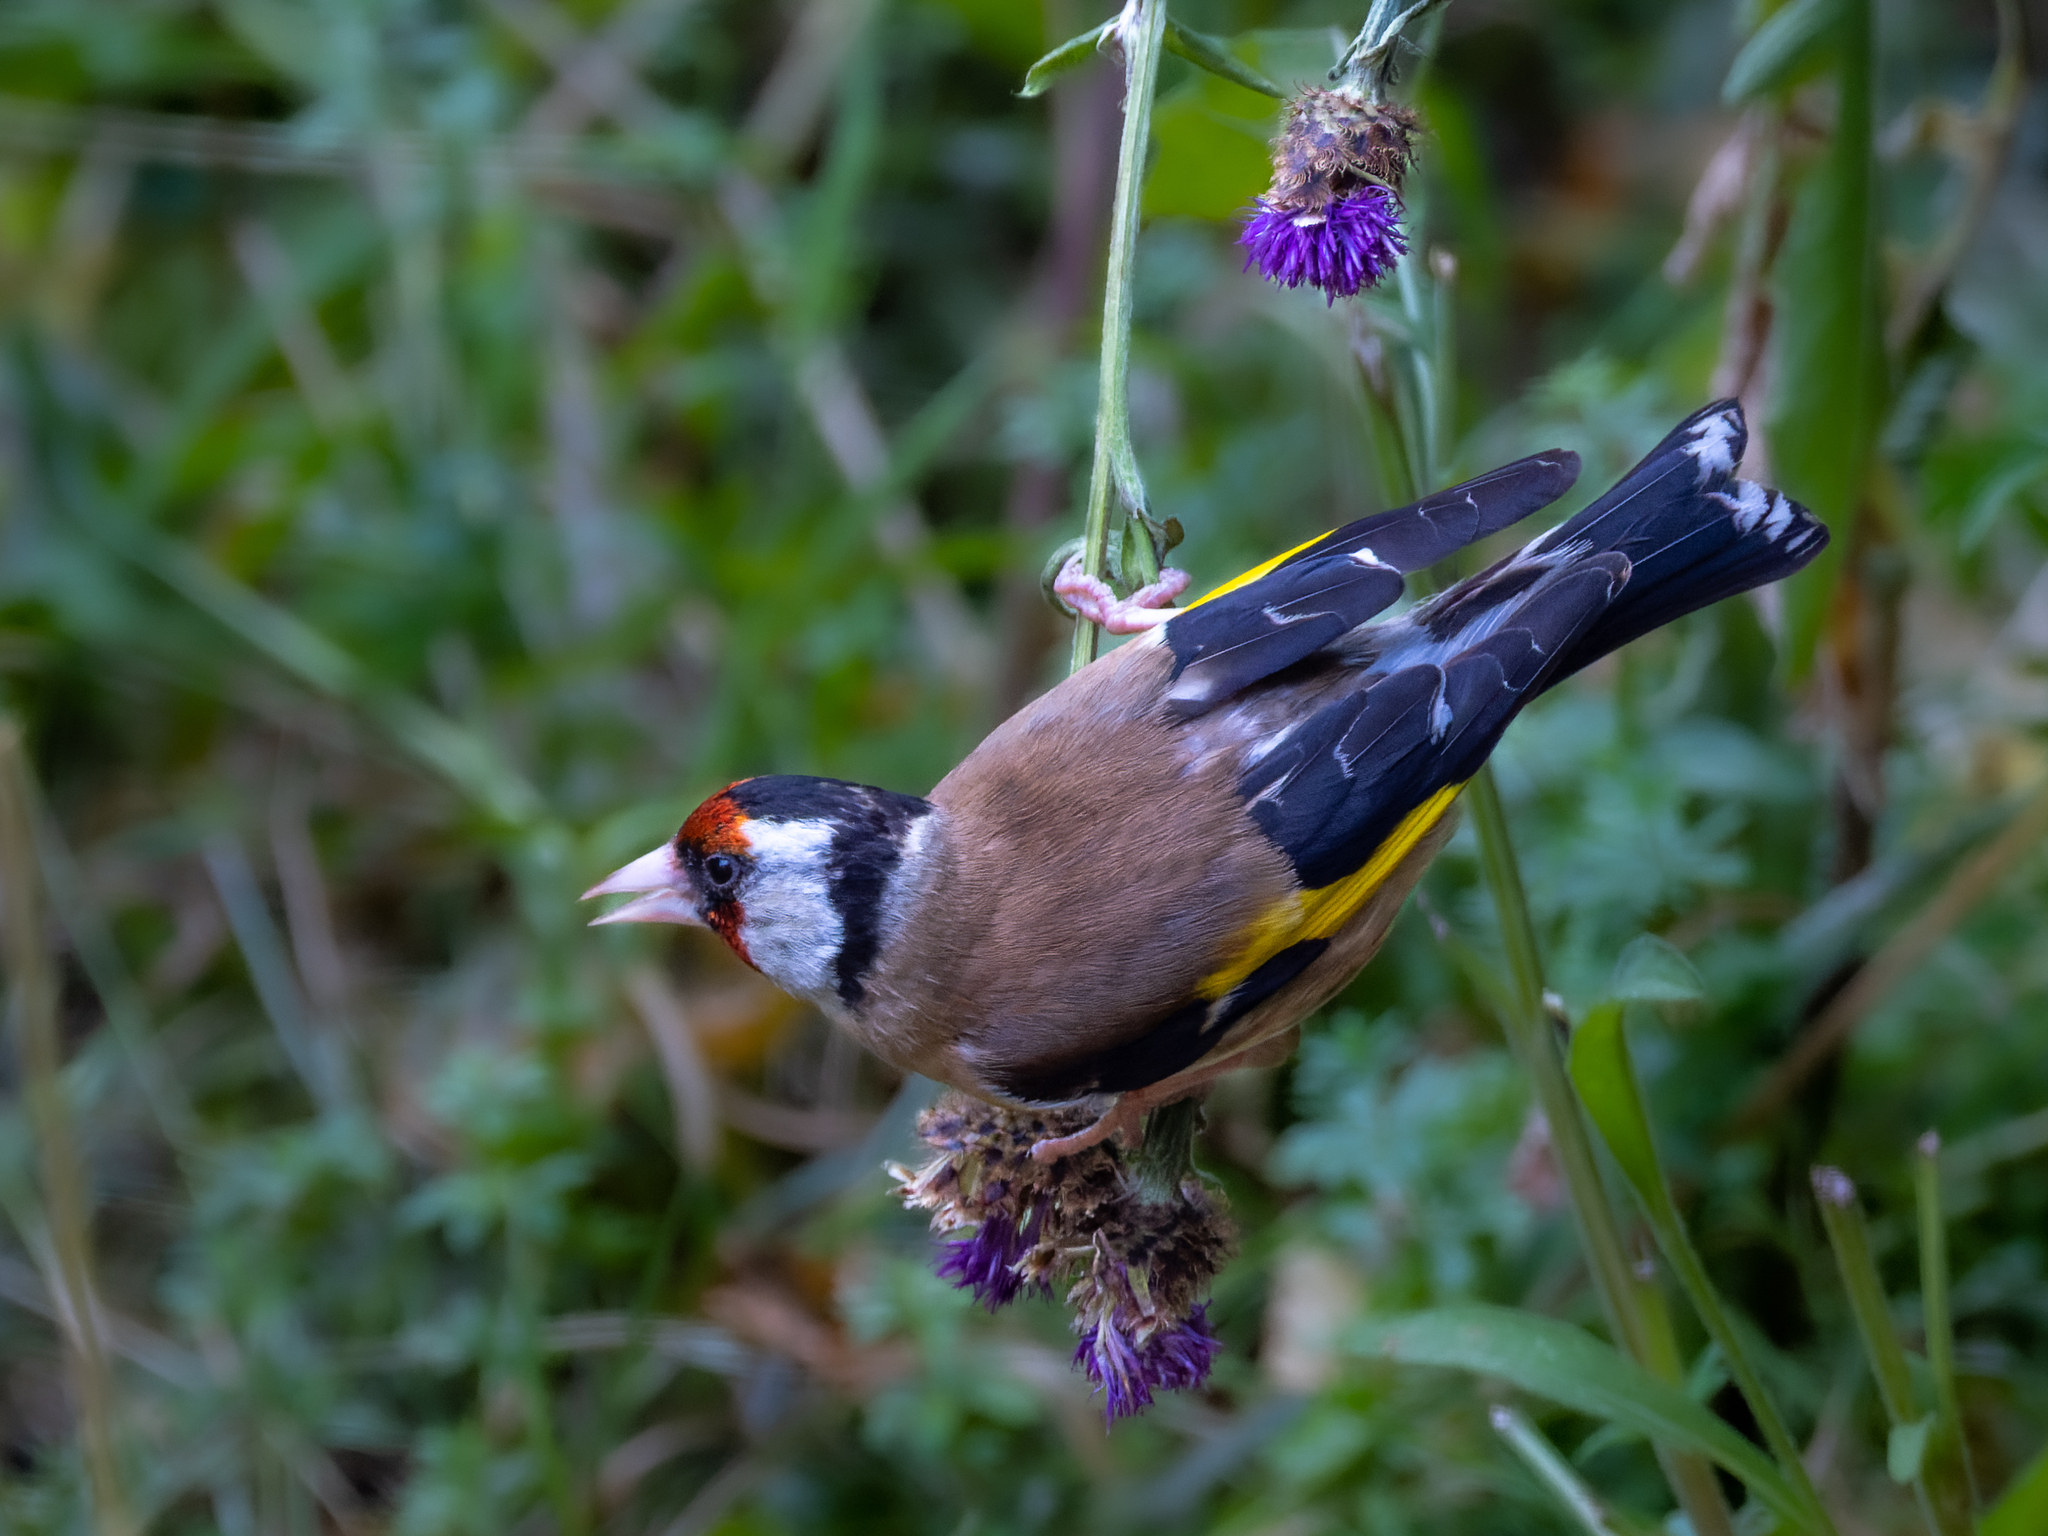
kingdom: Animalia
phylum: Chordata
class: Aves
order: Passeriformes
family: Fringillidae
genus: Carduelis
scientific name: Carduelis carduelis
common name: European goldfinch
